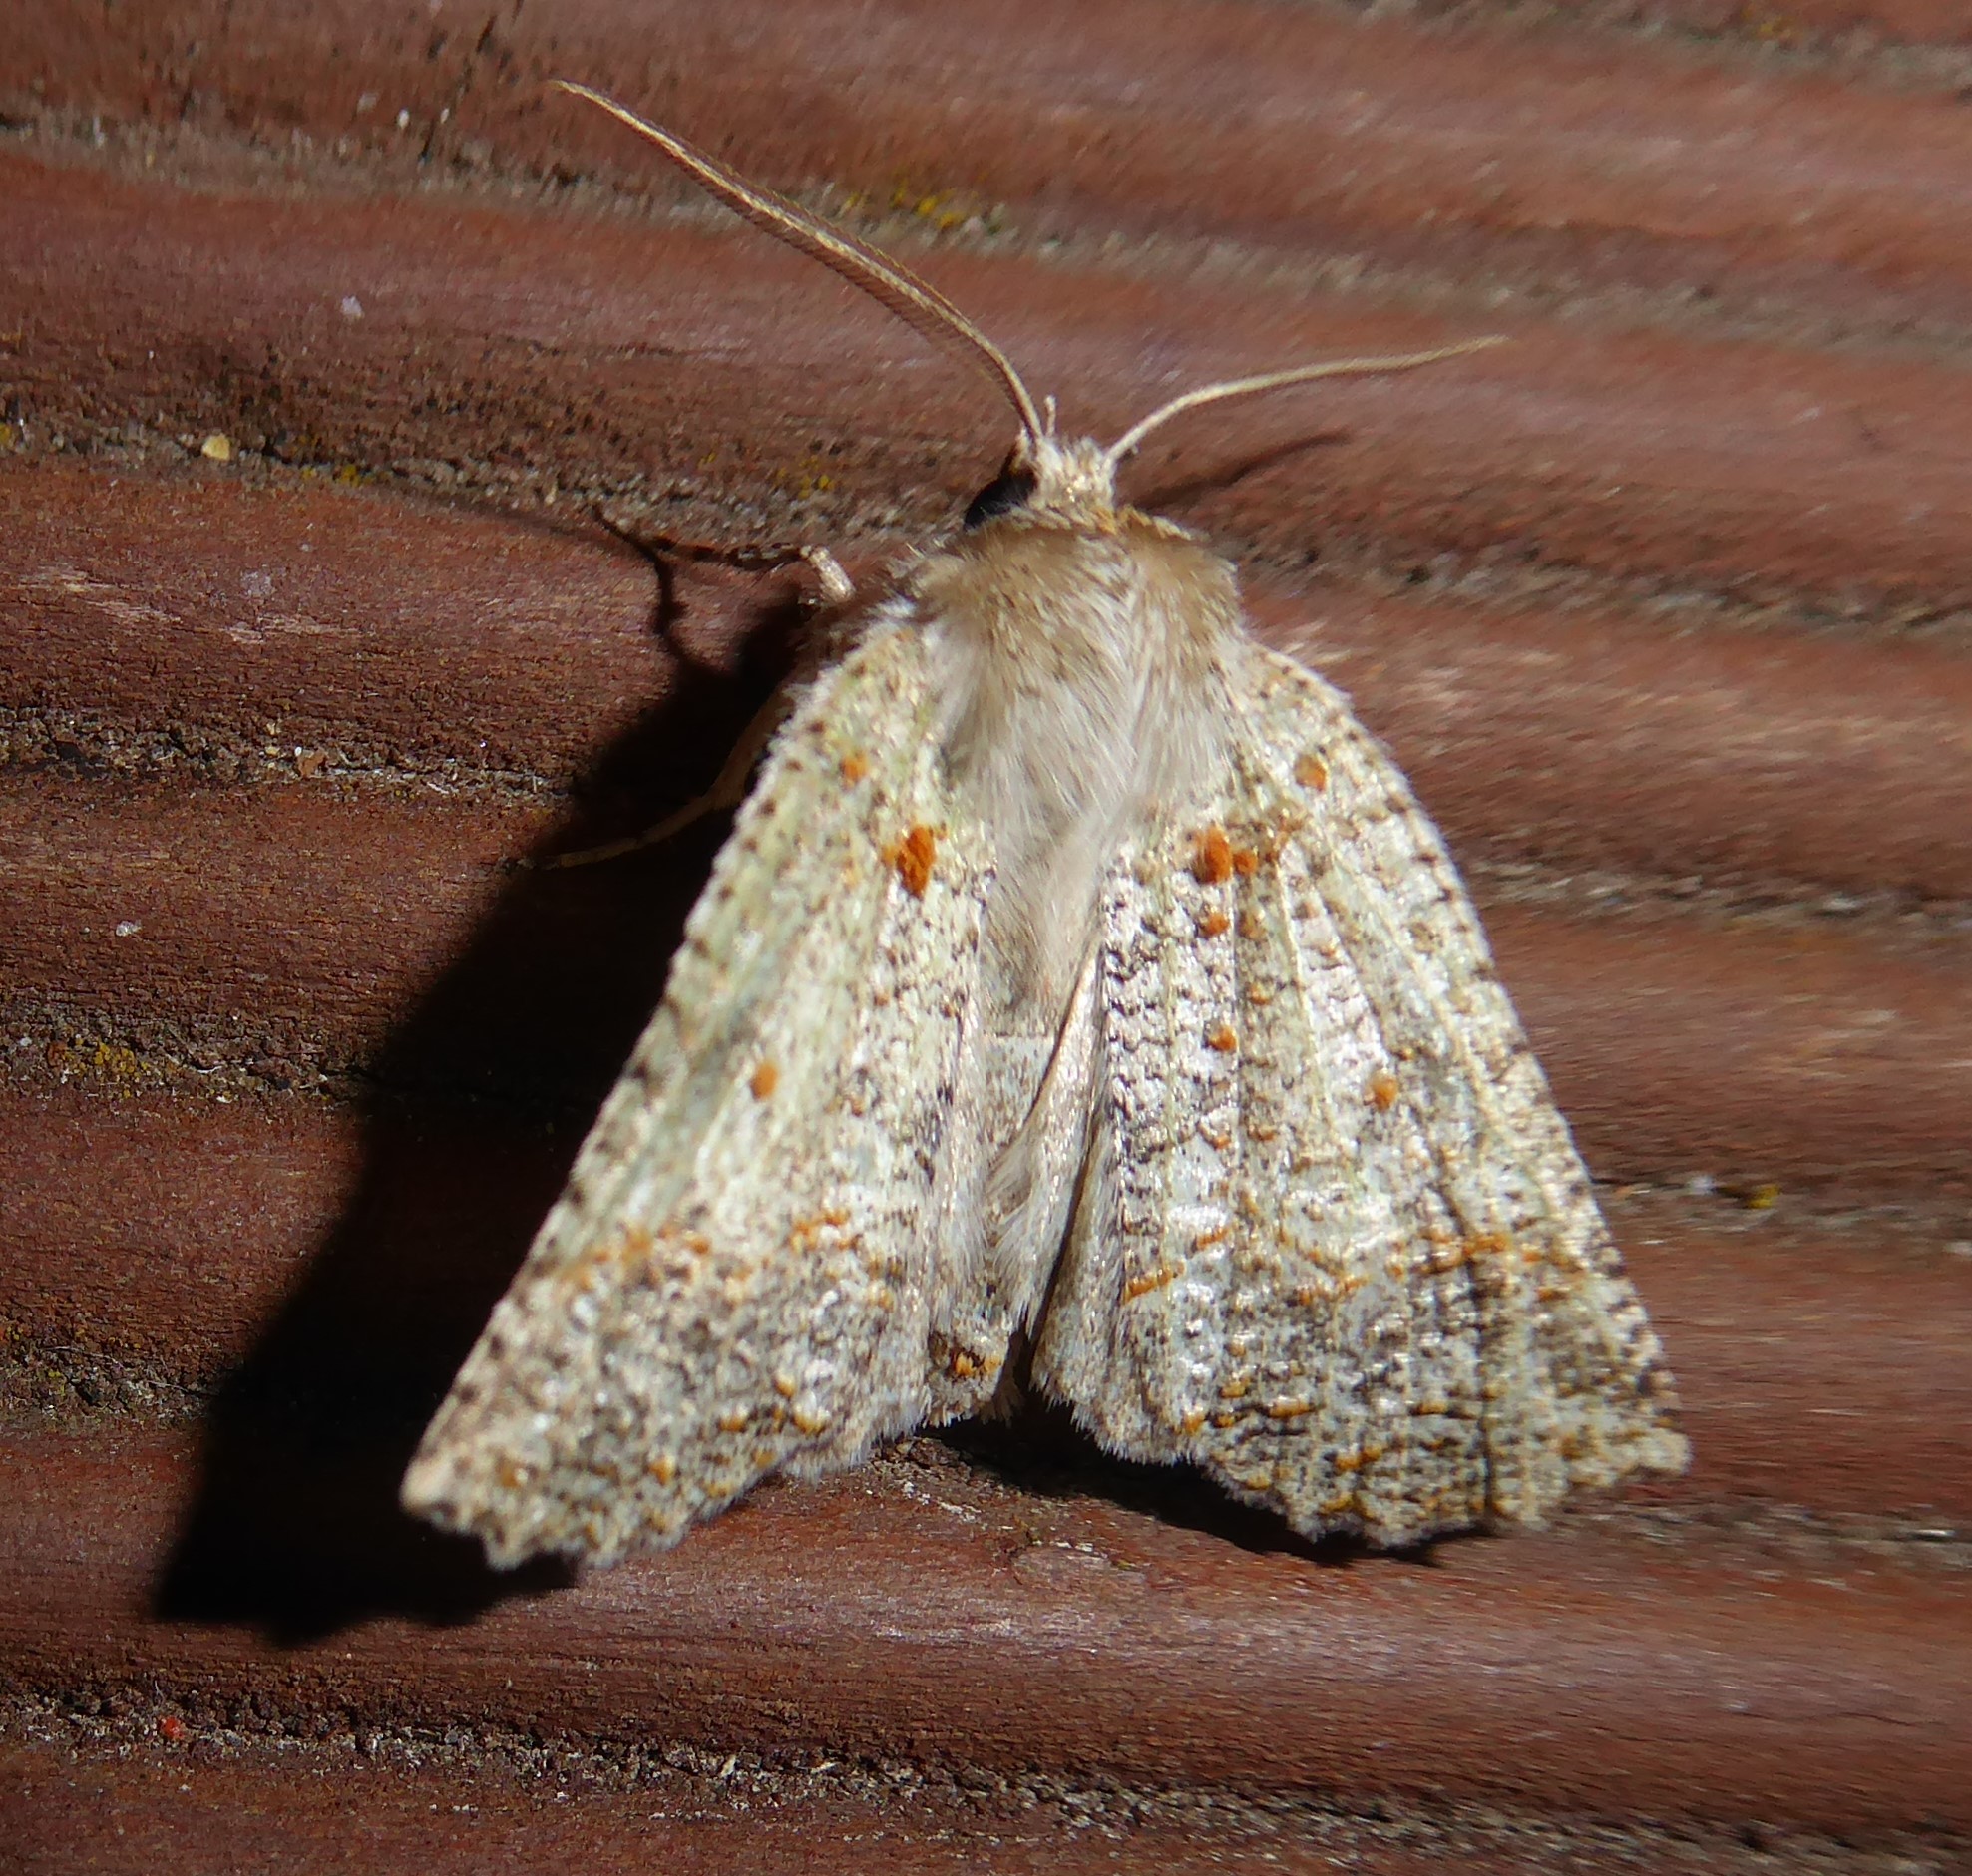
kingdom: Animalia
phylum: Arthropoda
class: Insecta
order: Lepidoptera
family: Geometridae
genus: Declana
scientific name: Declana floccosa
